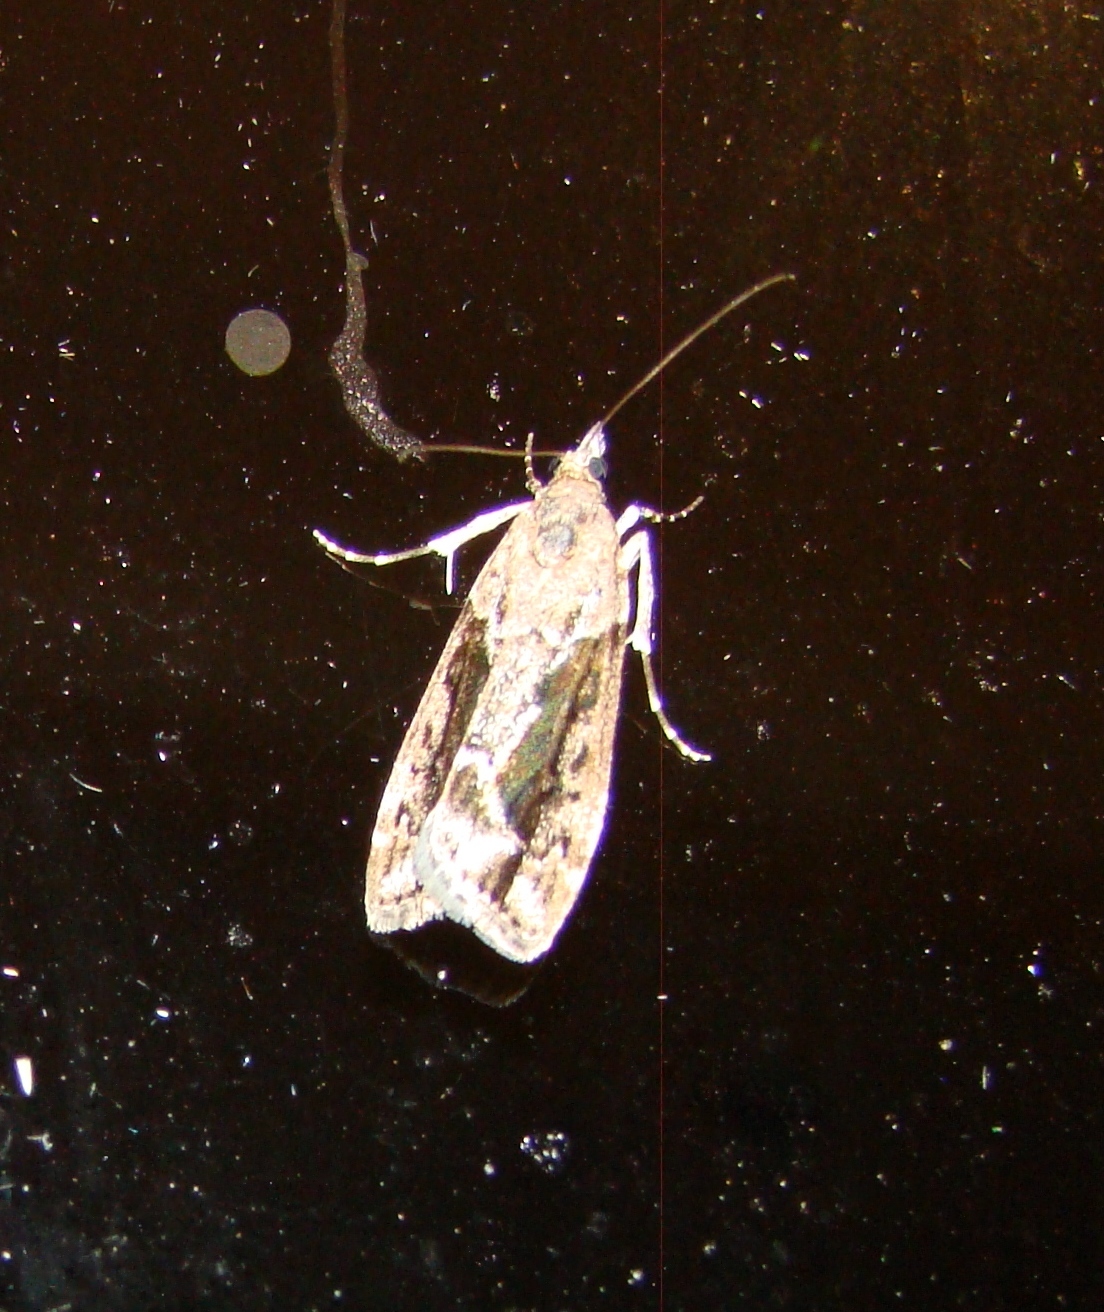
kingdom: Animalia
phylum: Arthropoda
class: Insecta
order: Lepidoptera
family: Crambidae
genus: Eudonia
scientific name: Eudonia submarginalis
